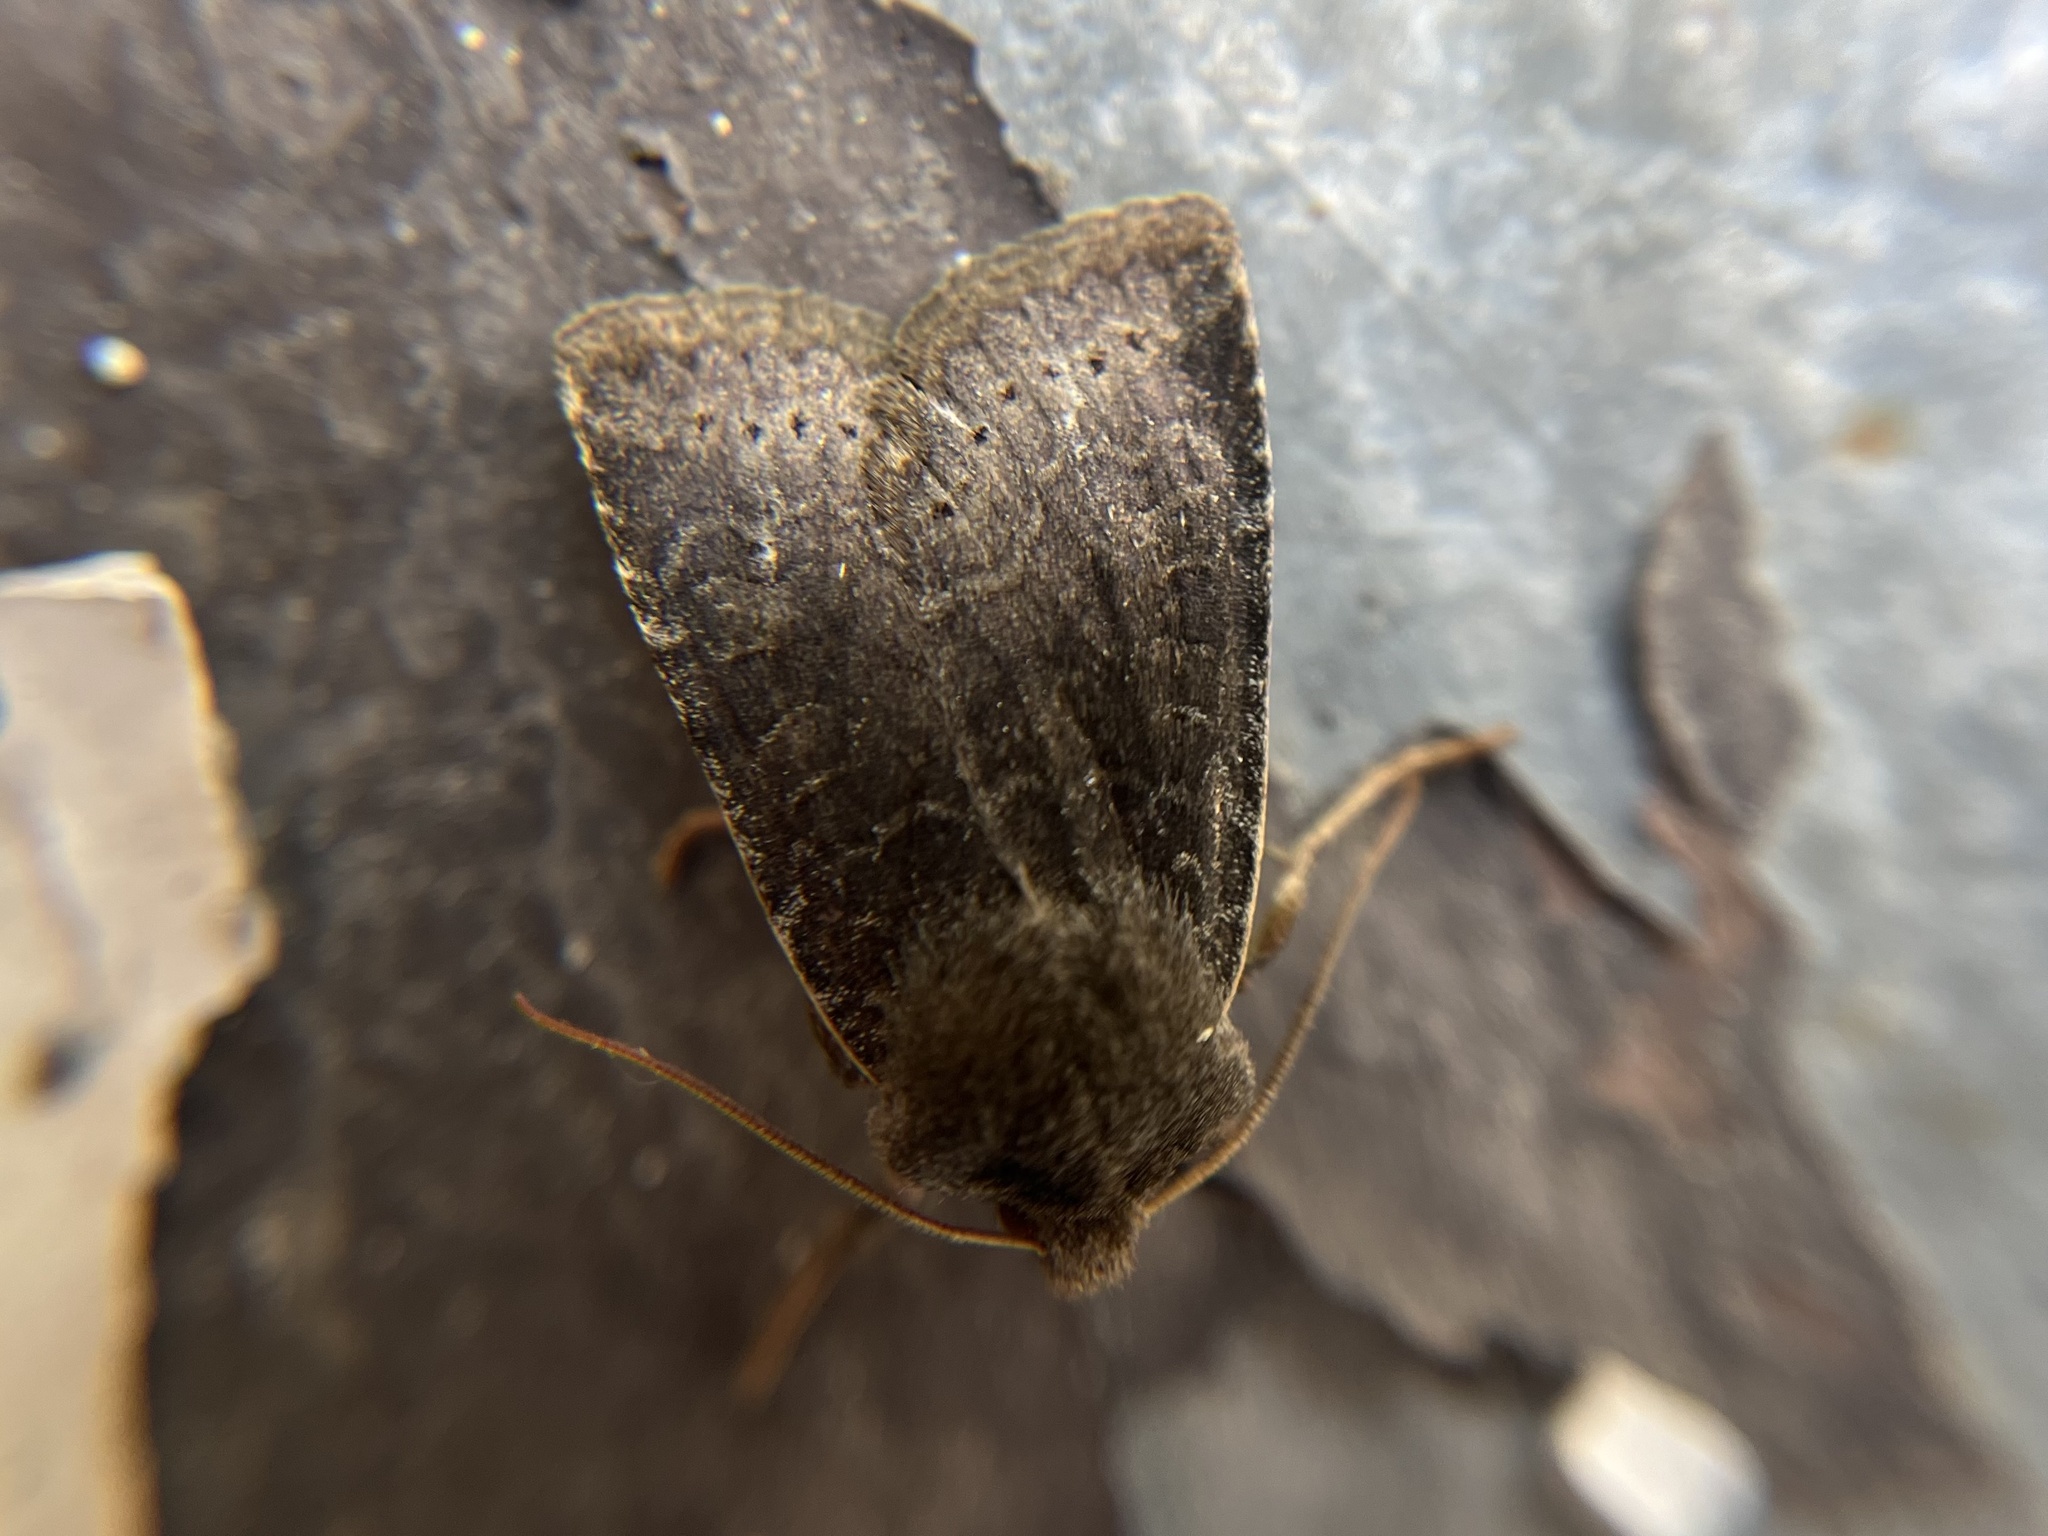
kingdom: Animalia
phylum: Arthropoda
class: Insecta
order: Lepidoptera
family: Noctuidae
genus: Conistra
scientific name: Conistra vaccinii
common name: Chestnut
